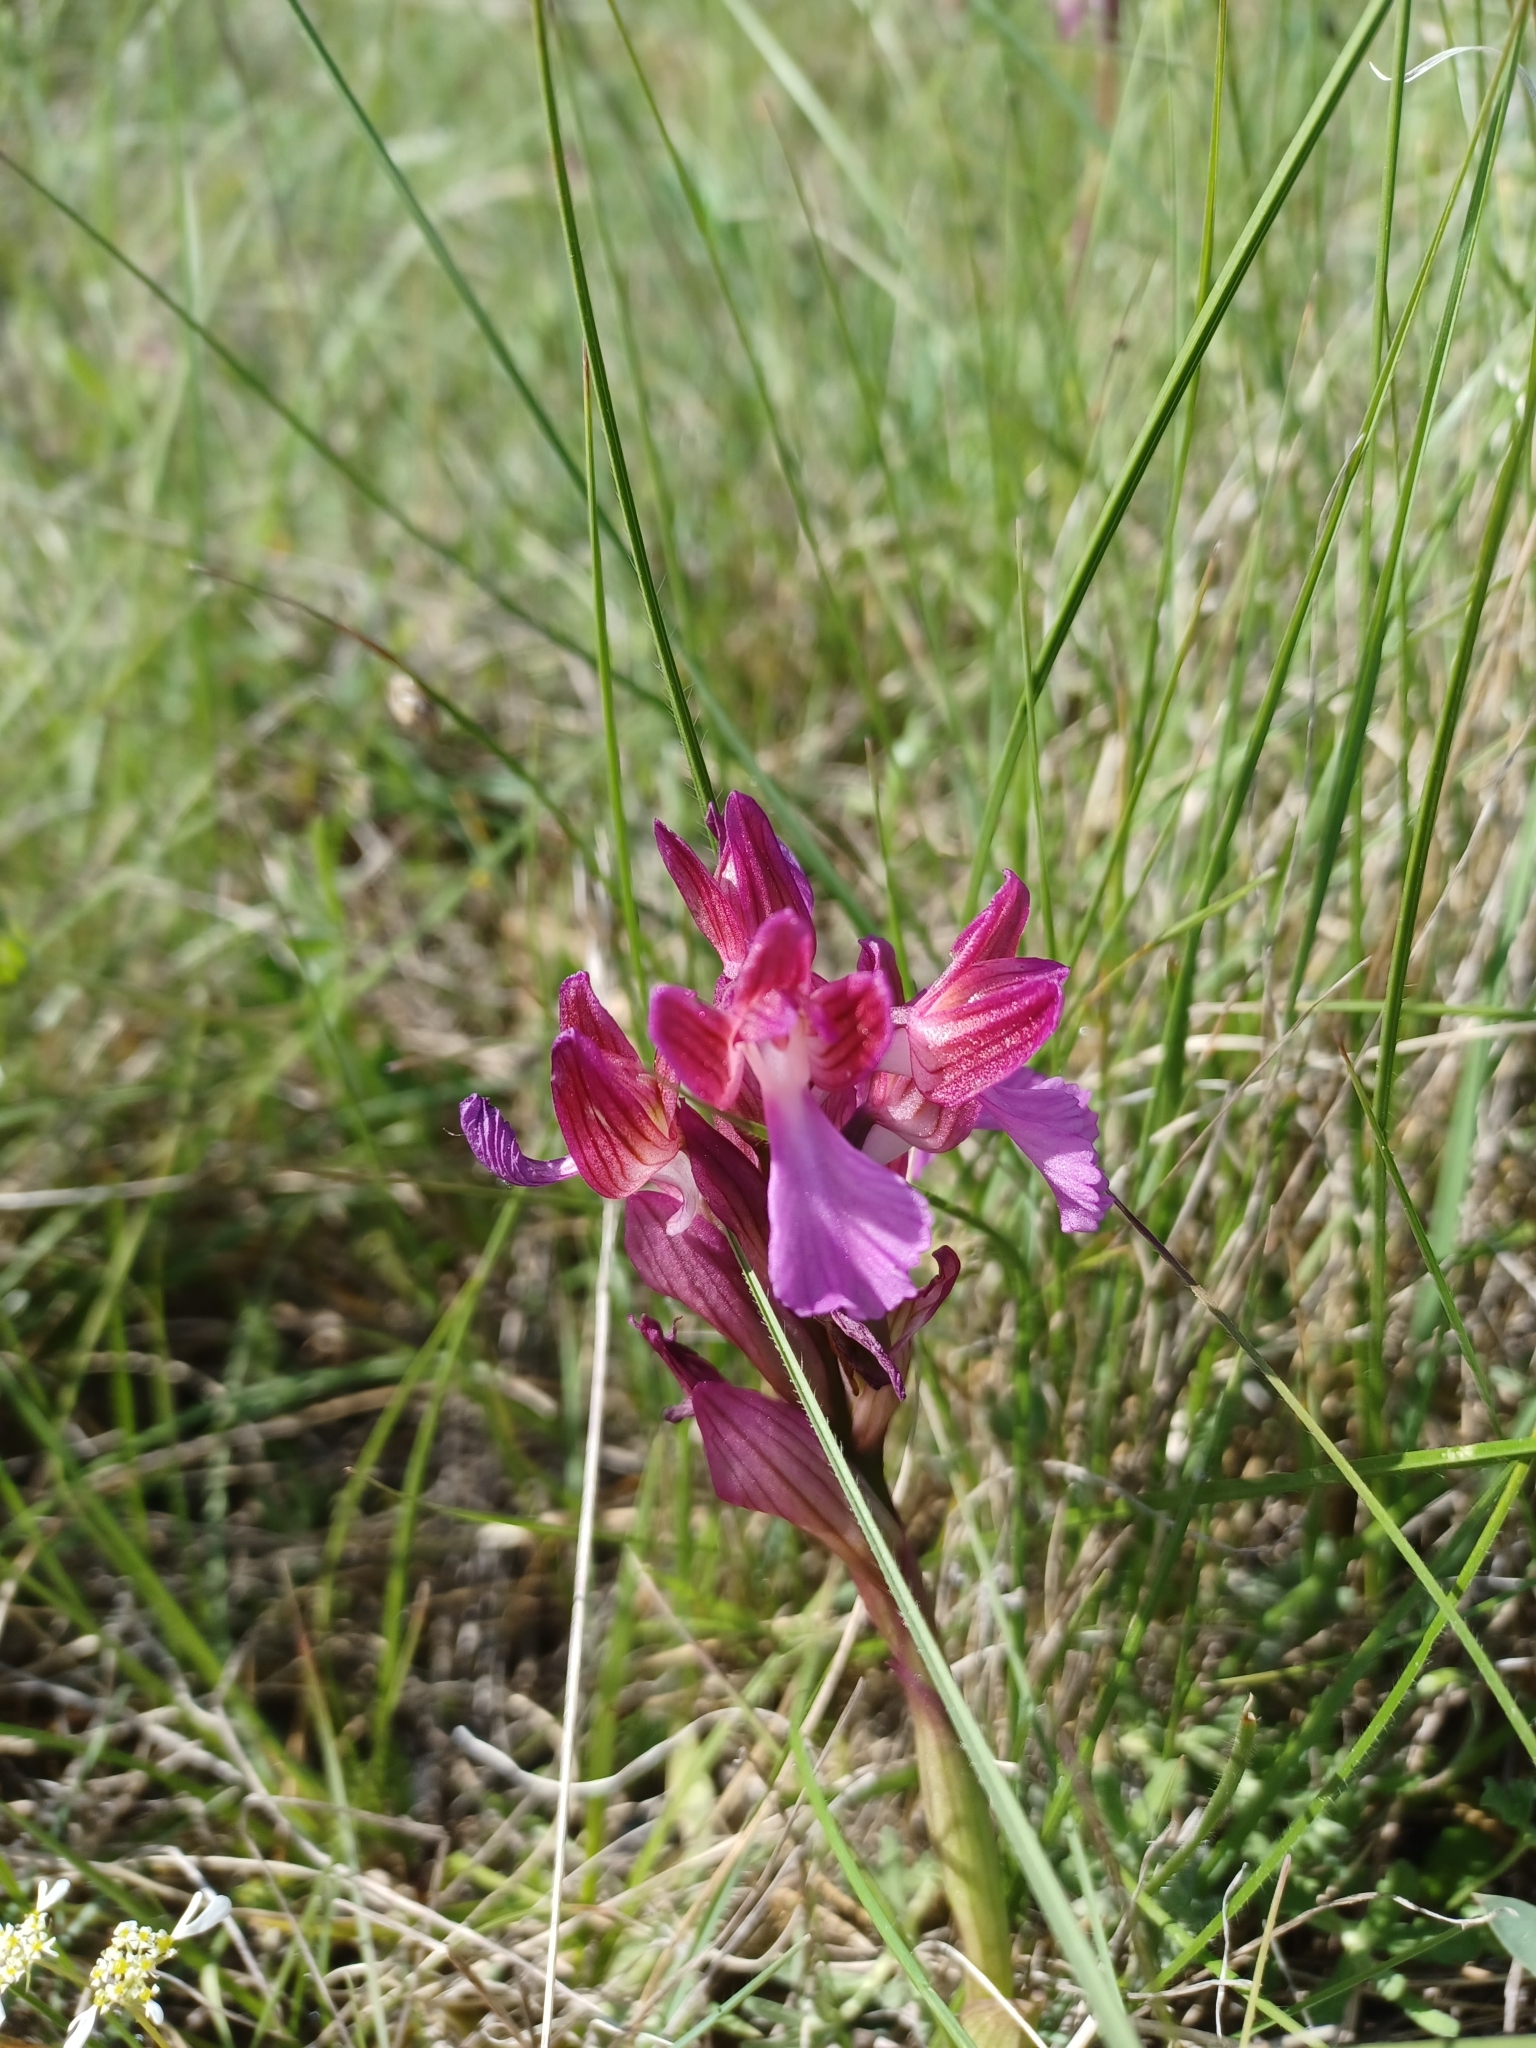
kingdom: Plantae
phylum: Tracheophyta
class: Liliopsida
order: Asparagales
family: Orchidaceae
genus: Anacamptis
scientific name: Anacamptis papilionacea
